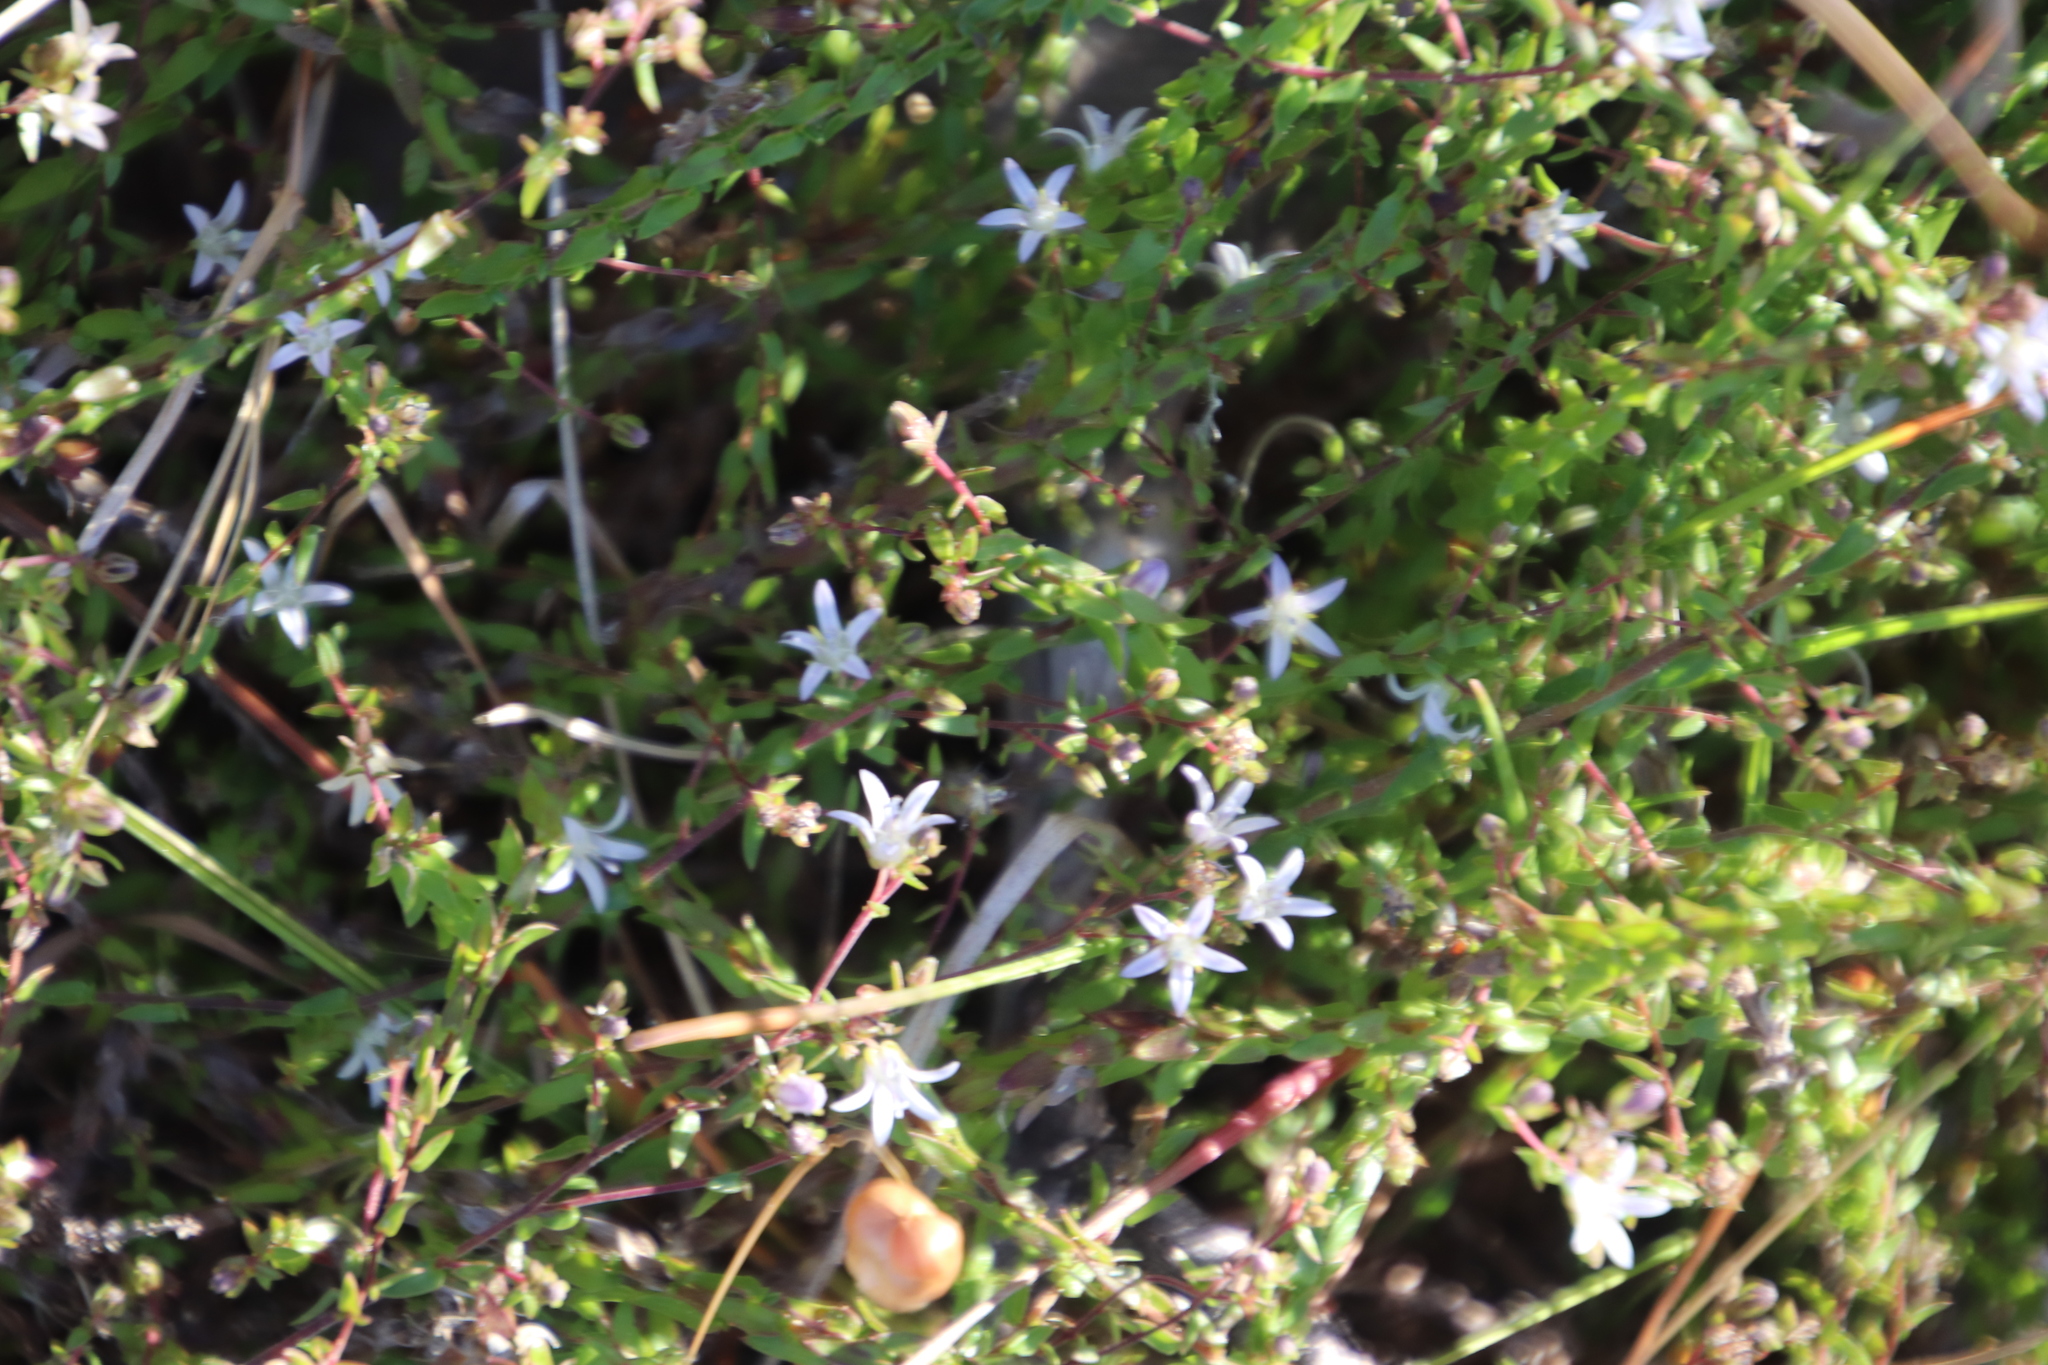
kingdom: Plantae
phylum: Tracheophyta
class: Magnoliopsida
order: Asterales
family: Campanulaceae
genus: Wahlenbergia
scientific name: Wahlenbergia parvifolia
